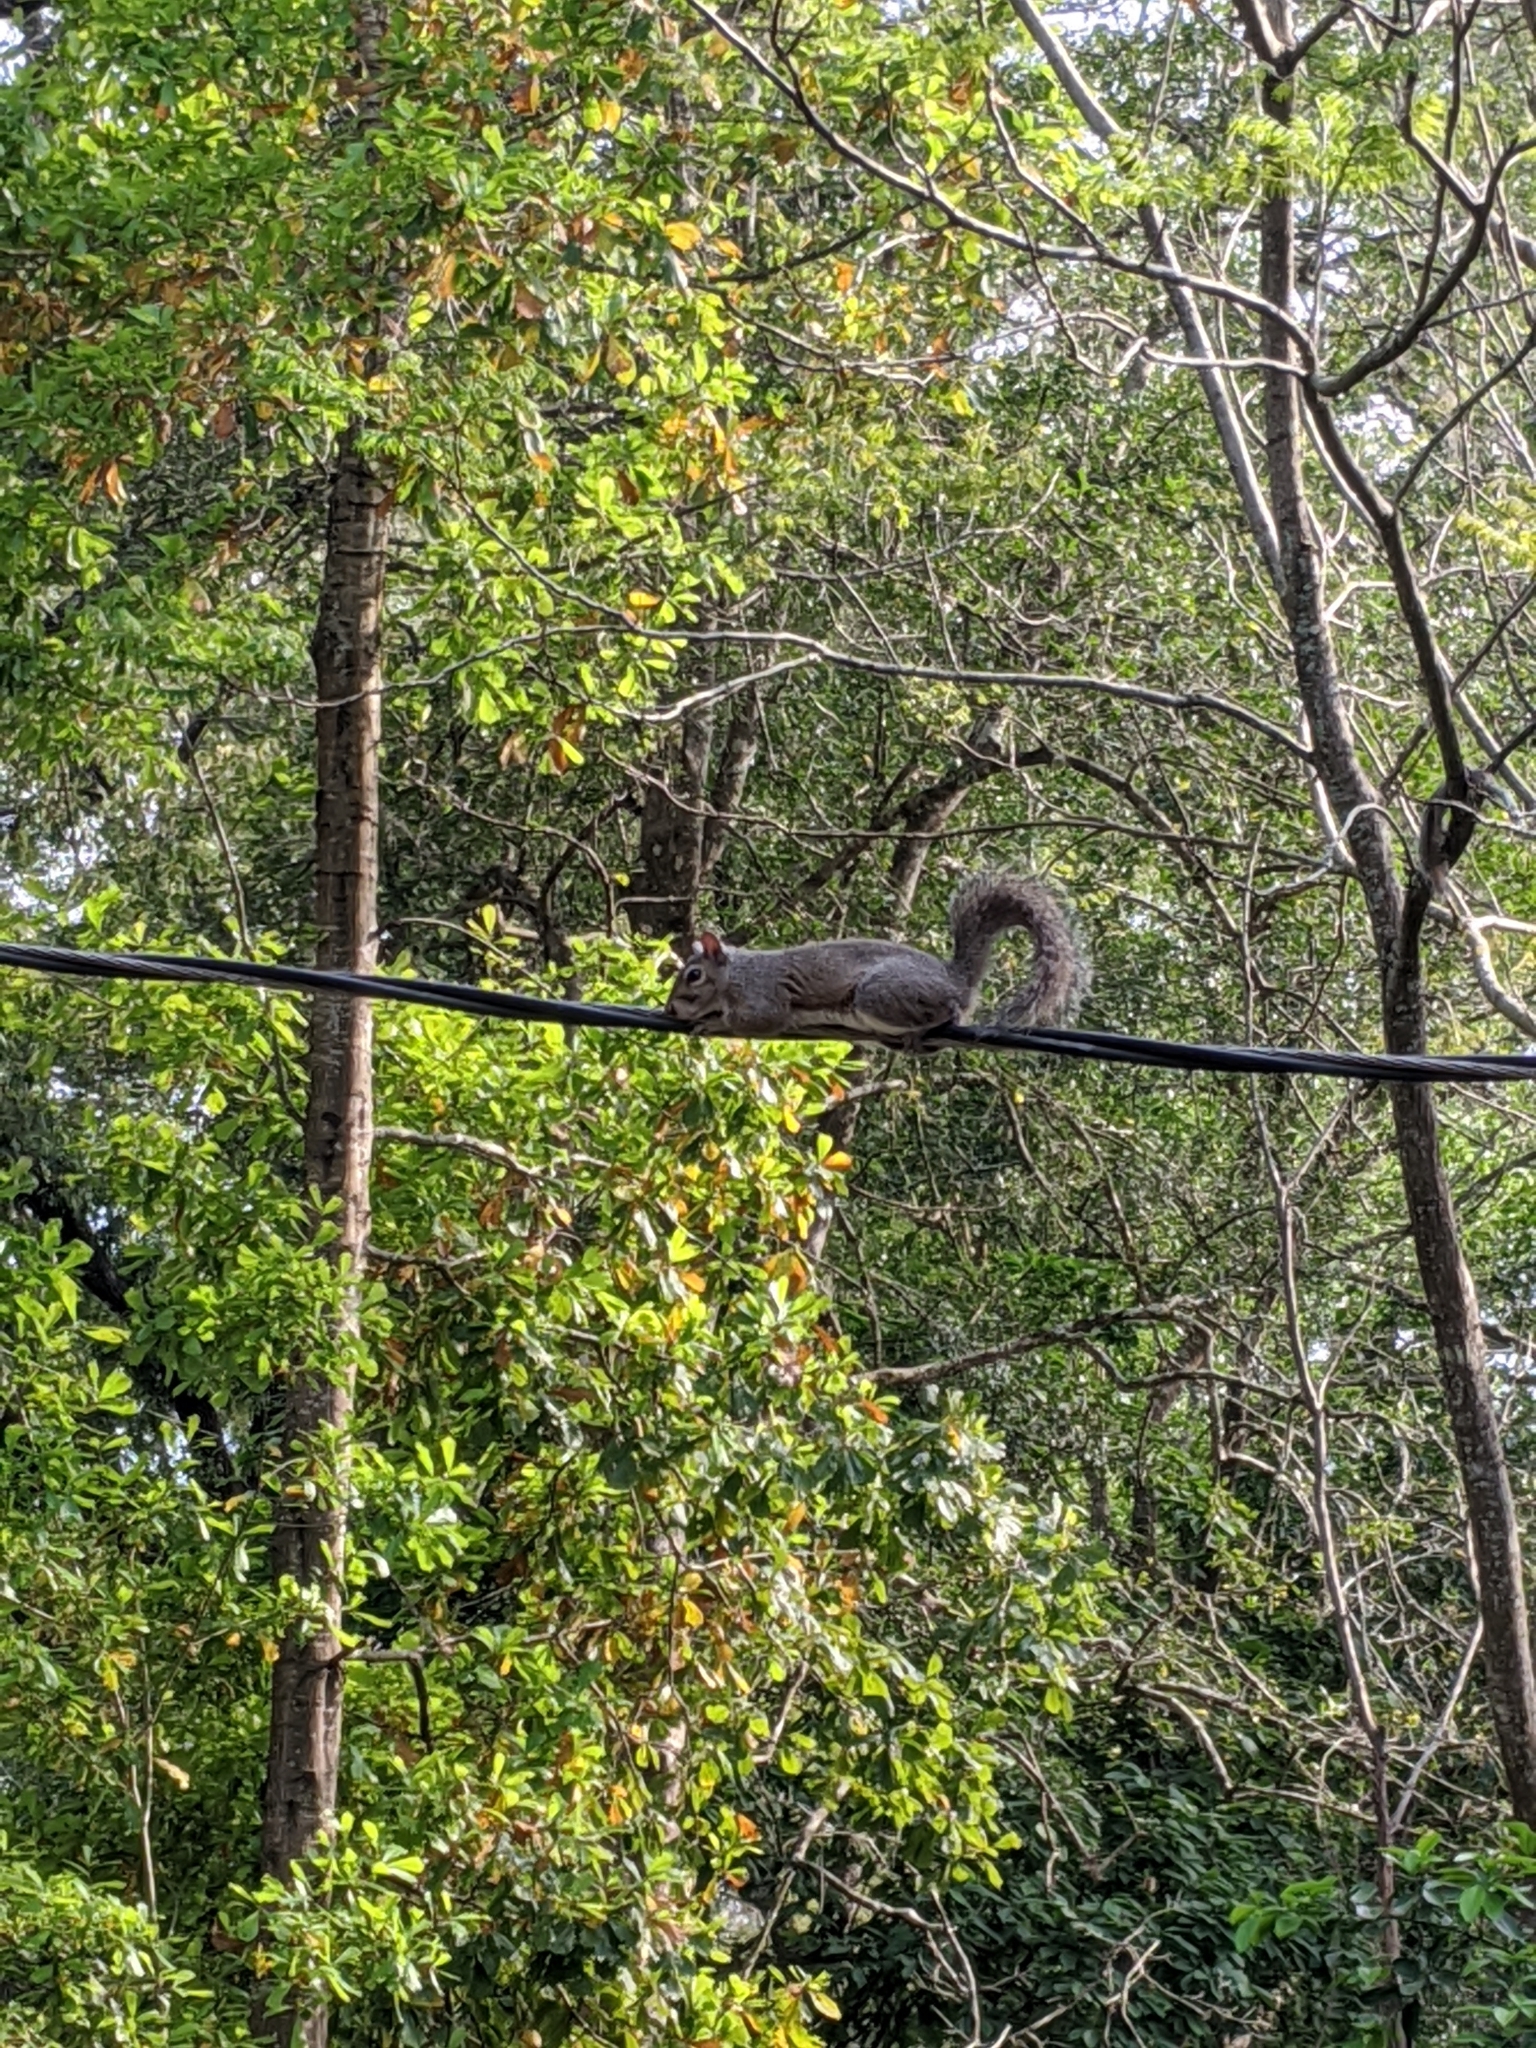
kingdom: Animalia
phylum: Chordata
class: Mammalia
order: Rodentia
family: Sciuridae
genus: Sciurus
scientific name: Sciurus carolinensis
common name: Eastern gray squirrel
